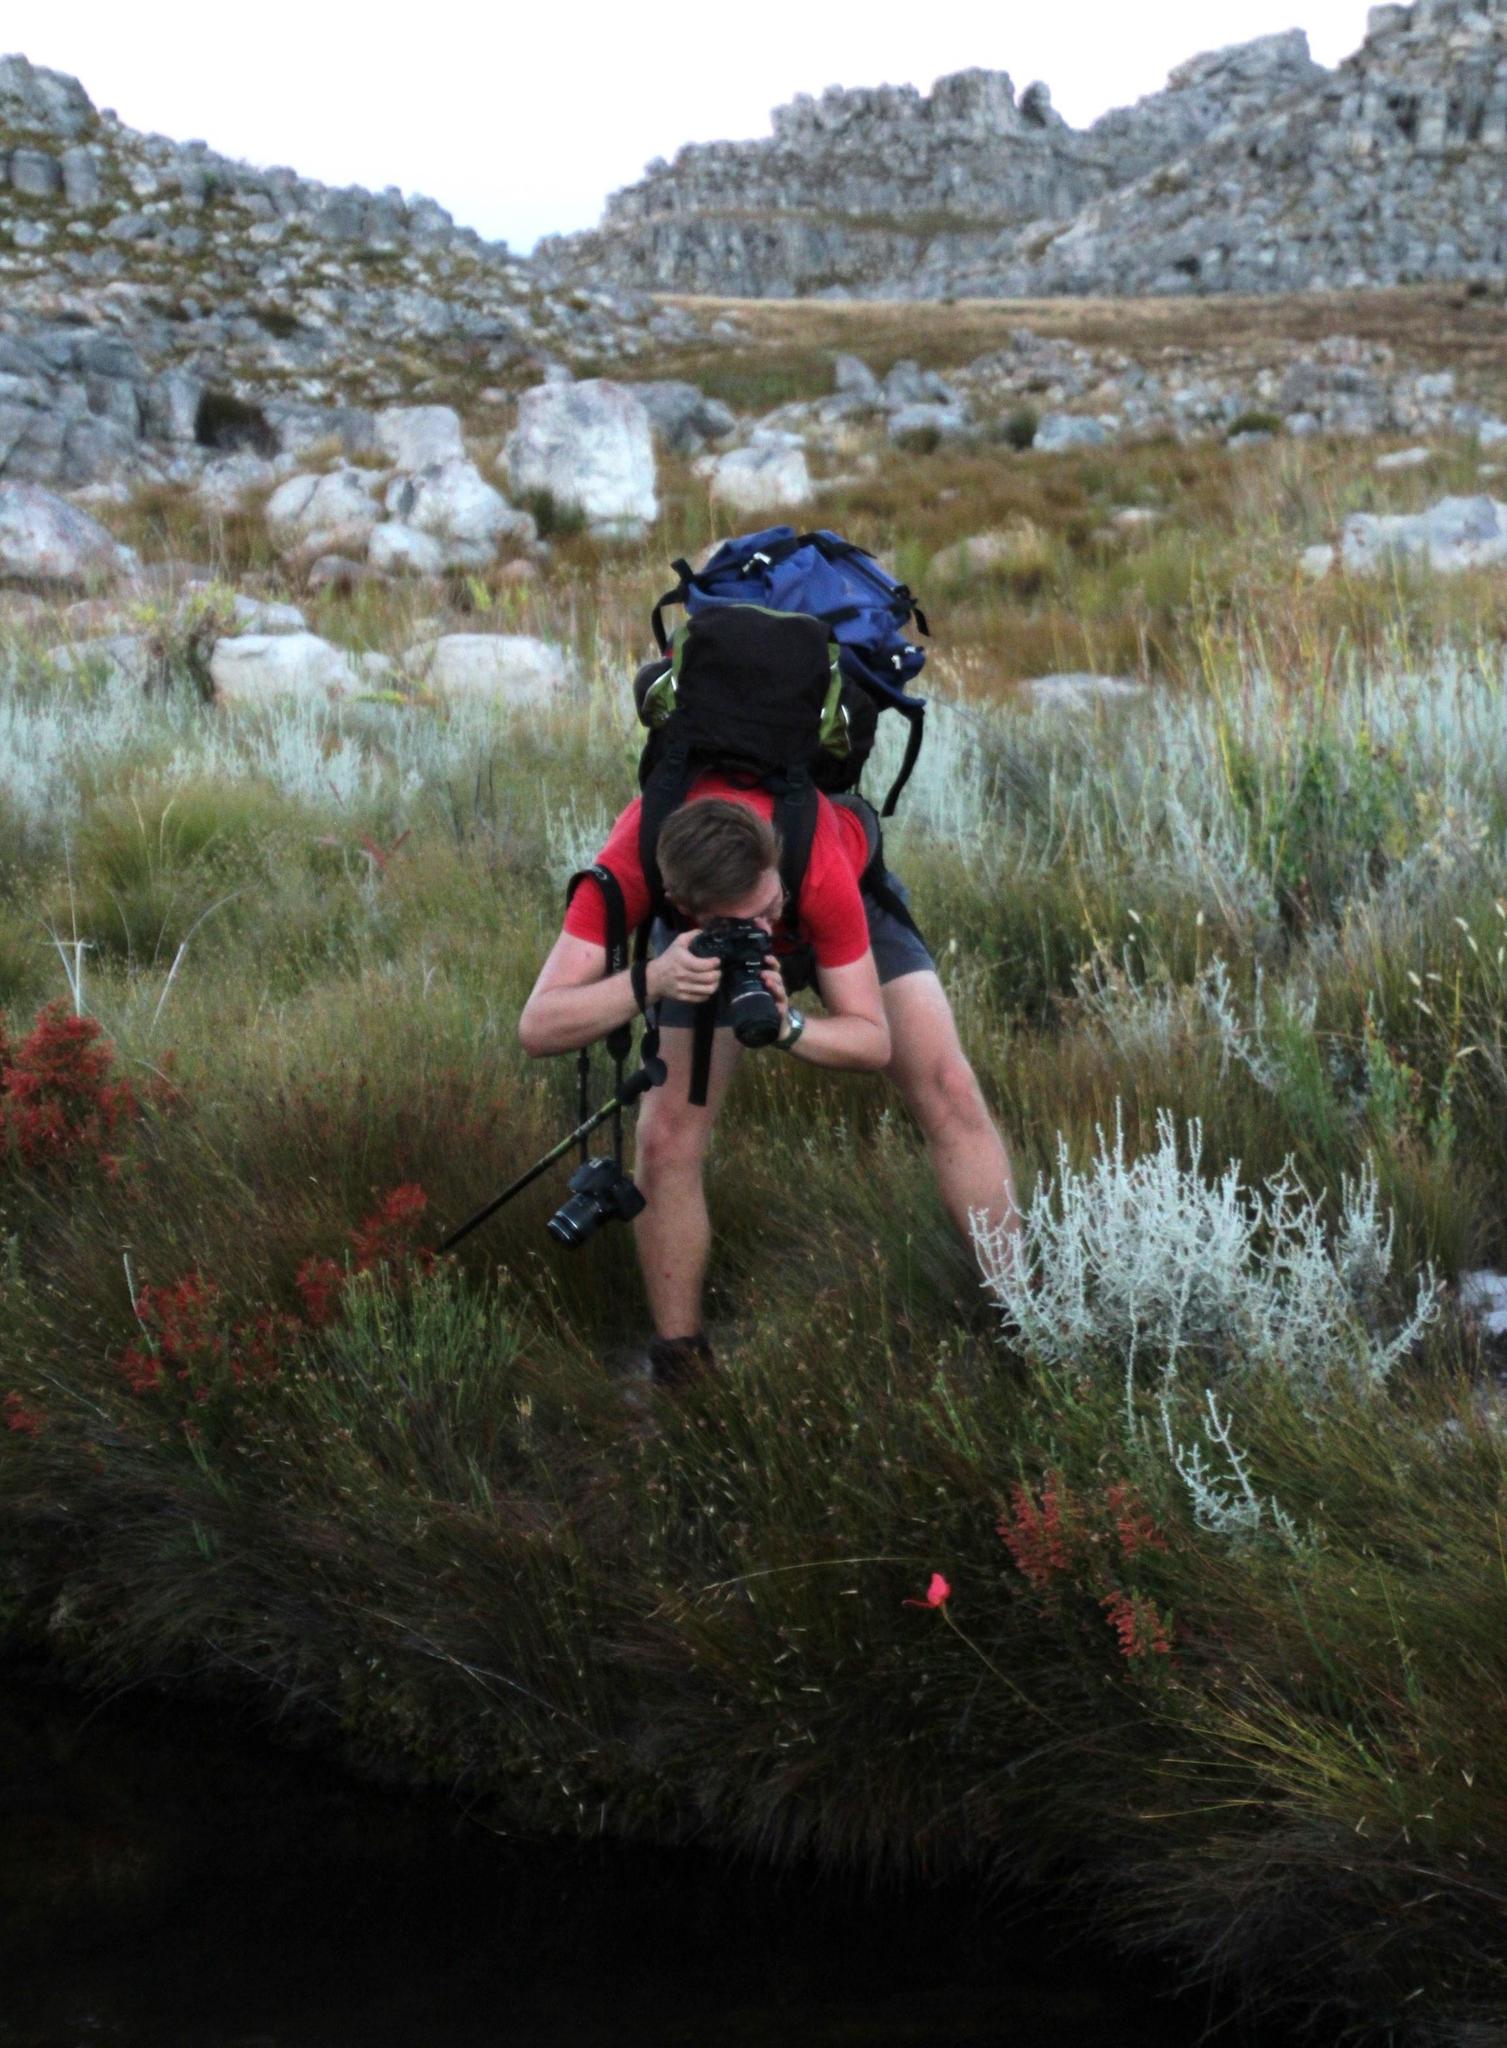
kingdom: Plantae
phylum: Tracheophyta
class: Liliopsida
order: Asparagales
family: Orchidaceae
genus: Disa
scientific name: Disa uniflora
